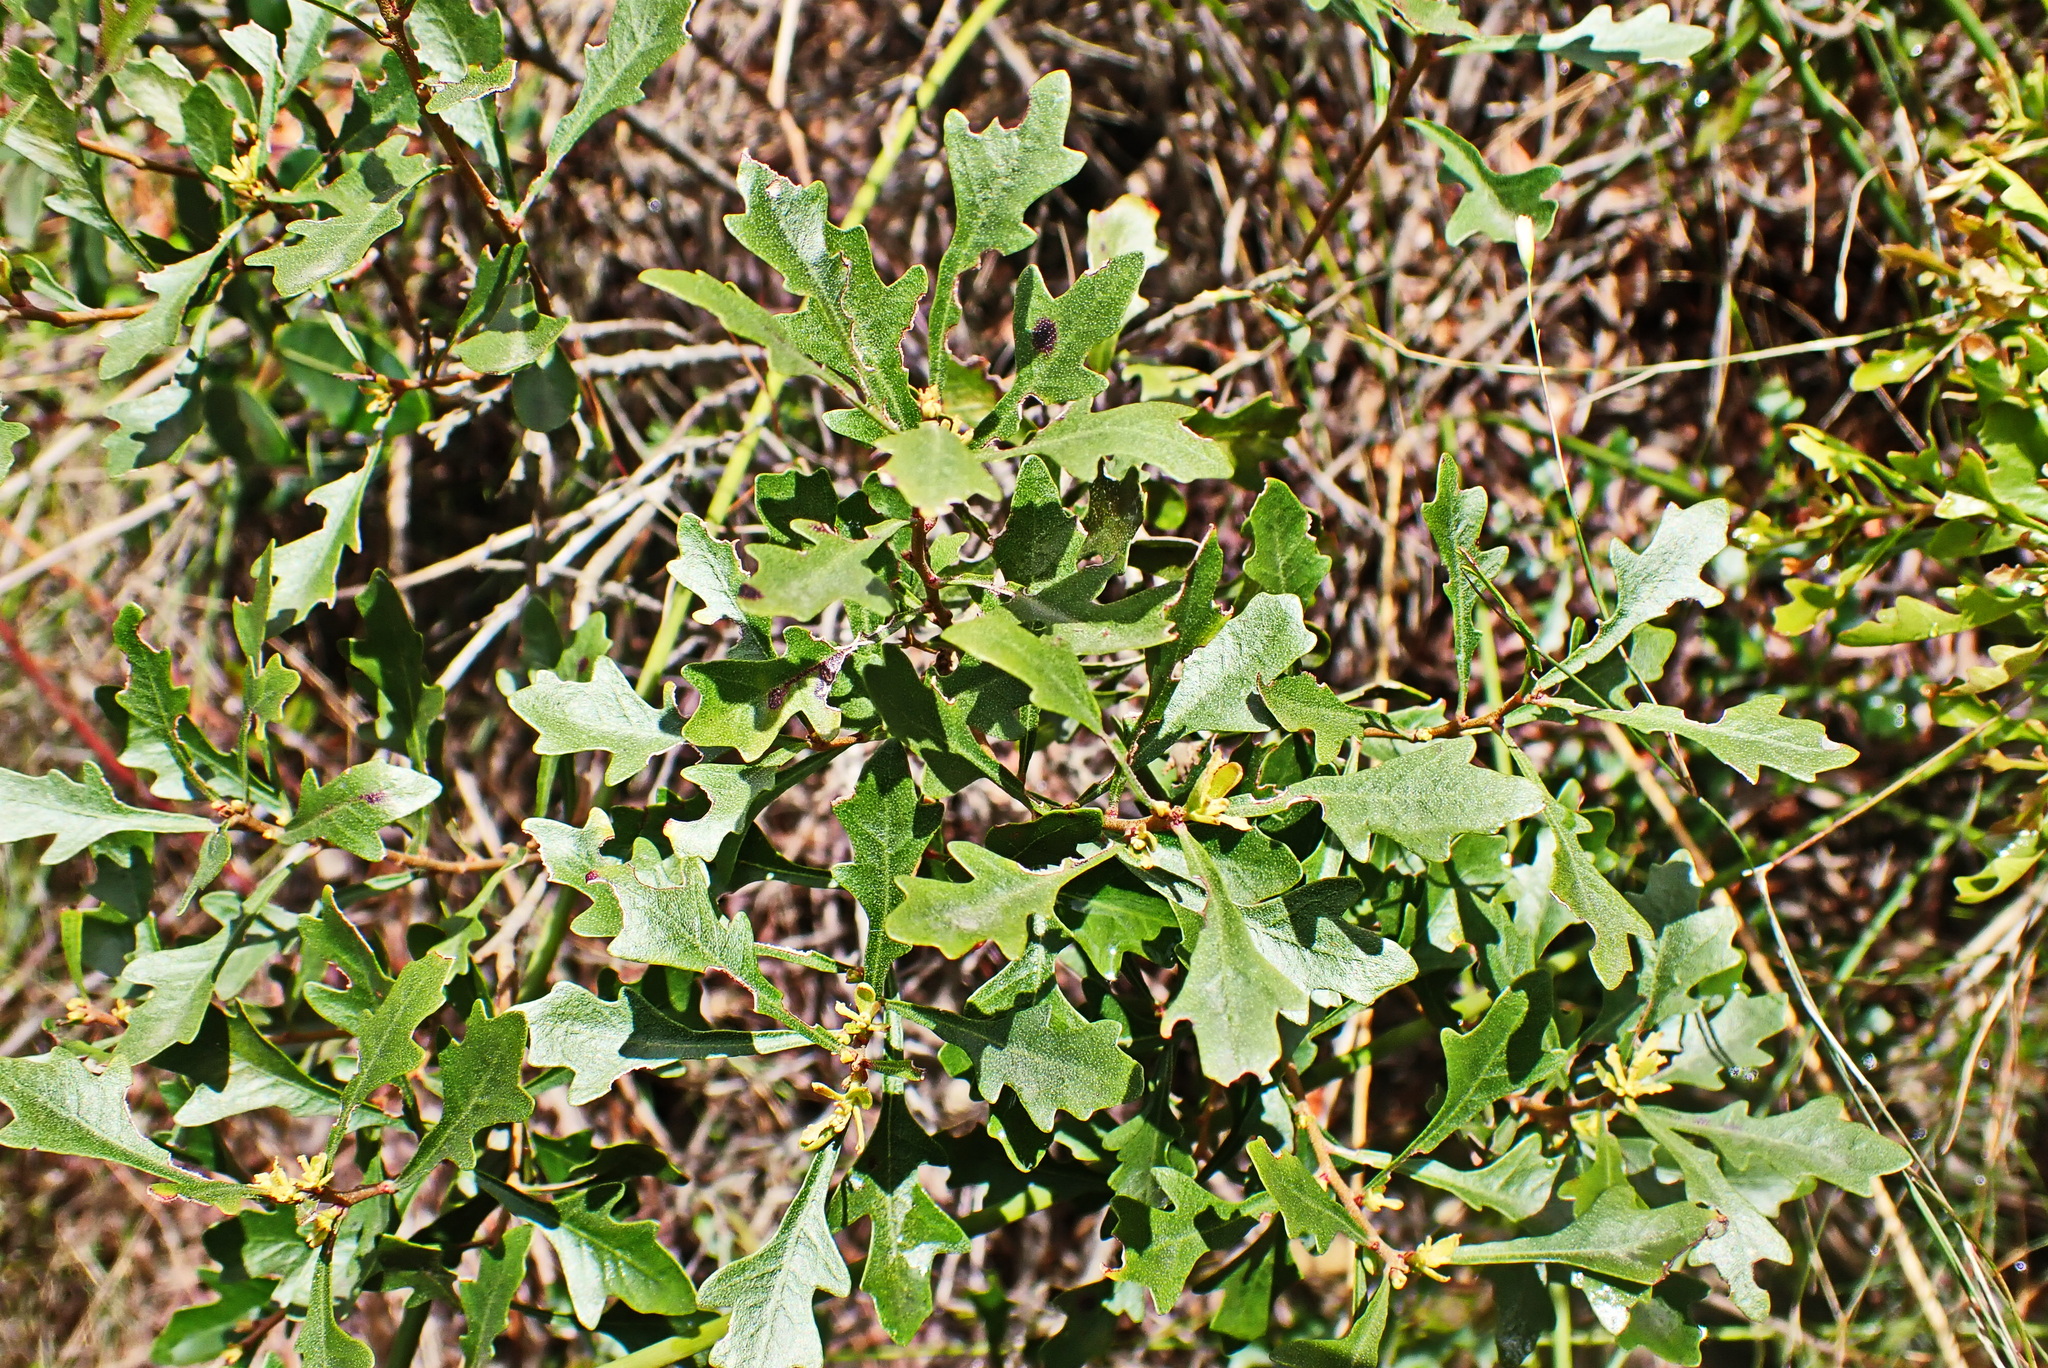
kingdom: Plantae
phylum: Tracheophyta
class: Magnoliopsida
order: Fagales
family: Myricaceae
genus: Morella
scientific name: Morella quercifolia
